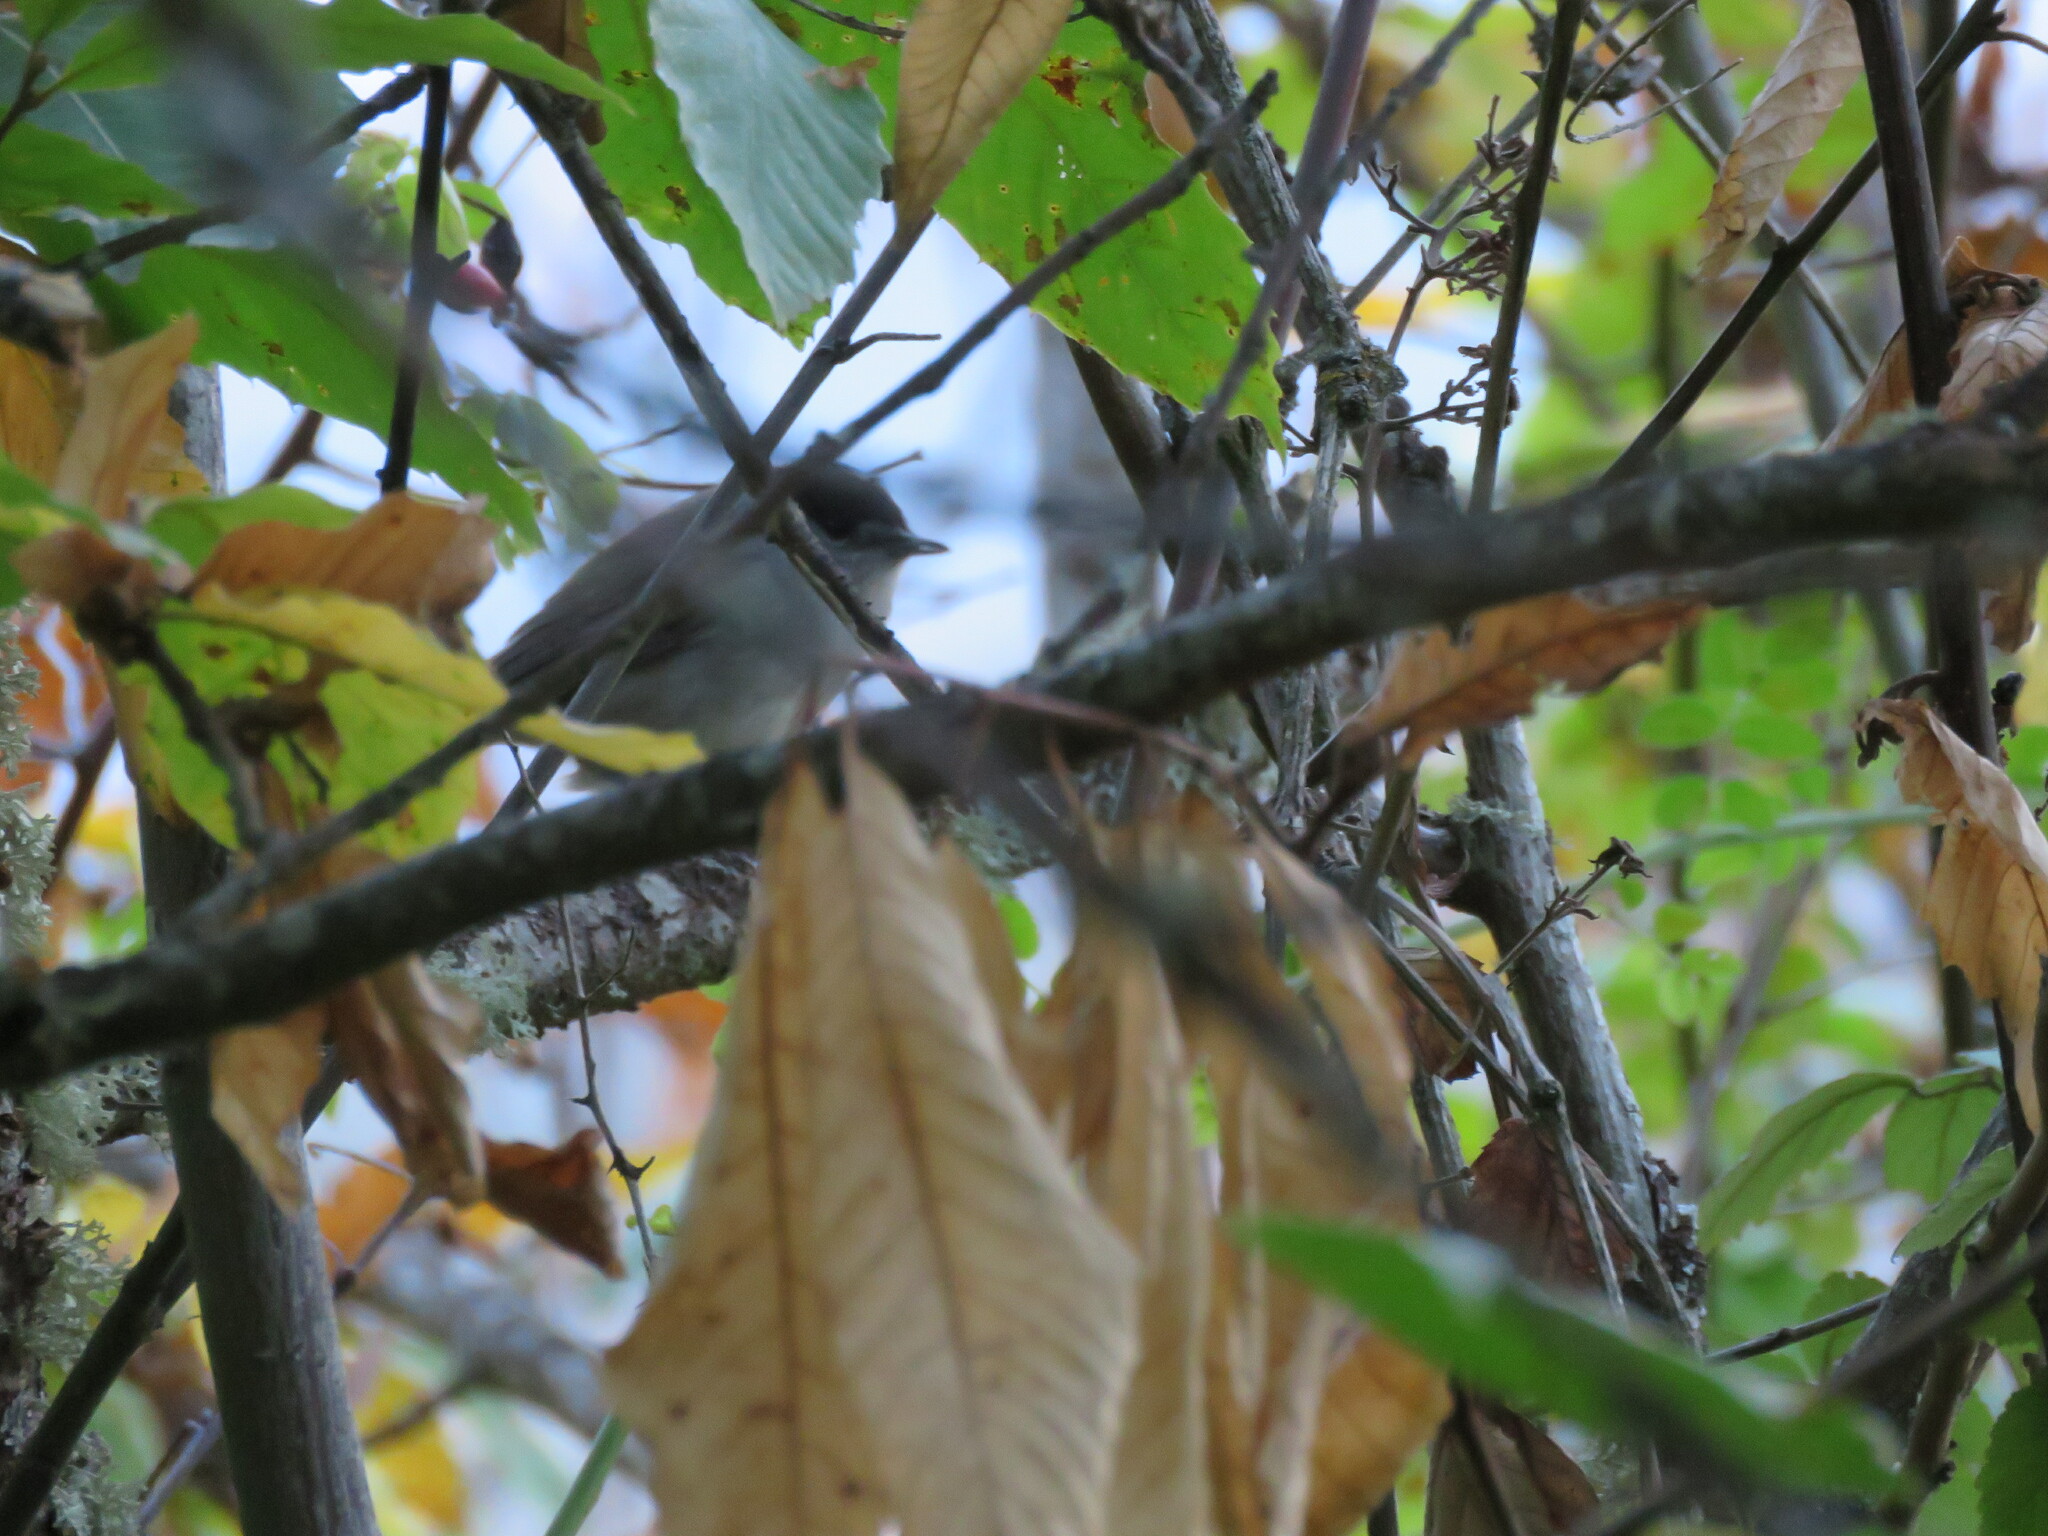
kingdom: Animalia
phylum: Chordata
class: Aves
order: Passeriformes
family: Sylviidae
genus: Sylvia
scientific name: Sylvia atricapilla
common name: Eurasian blackcap
